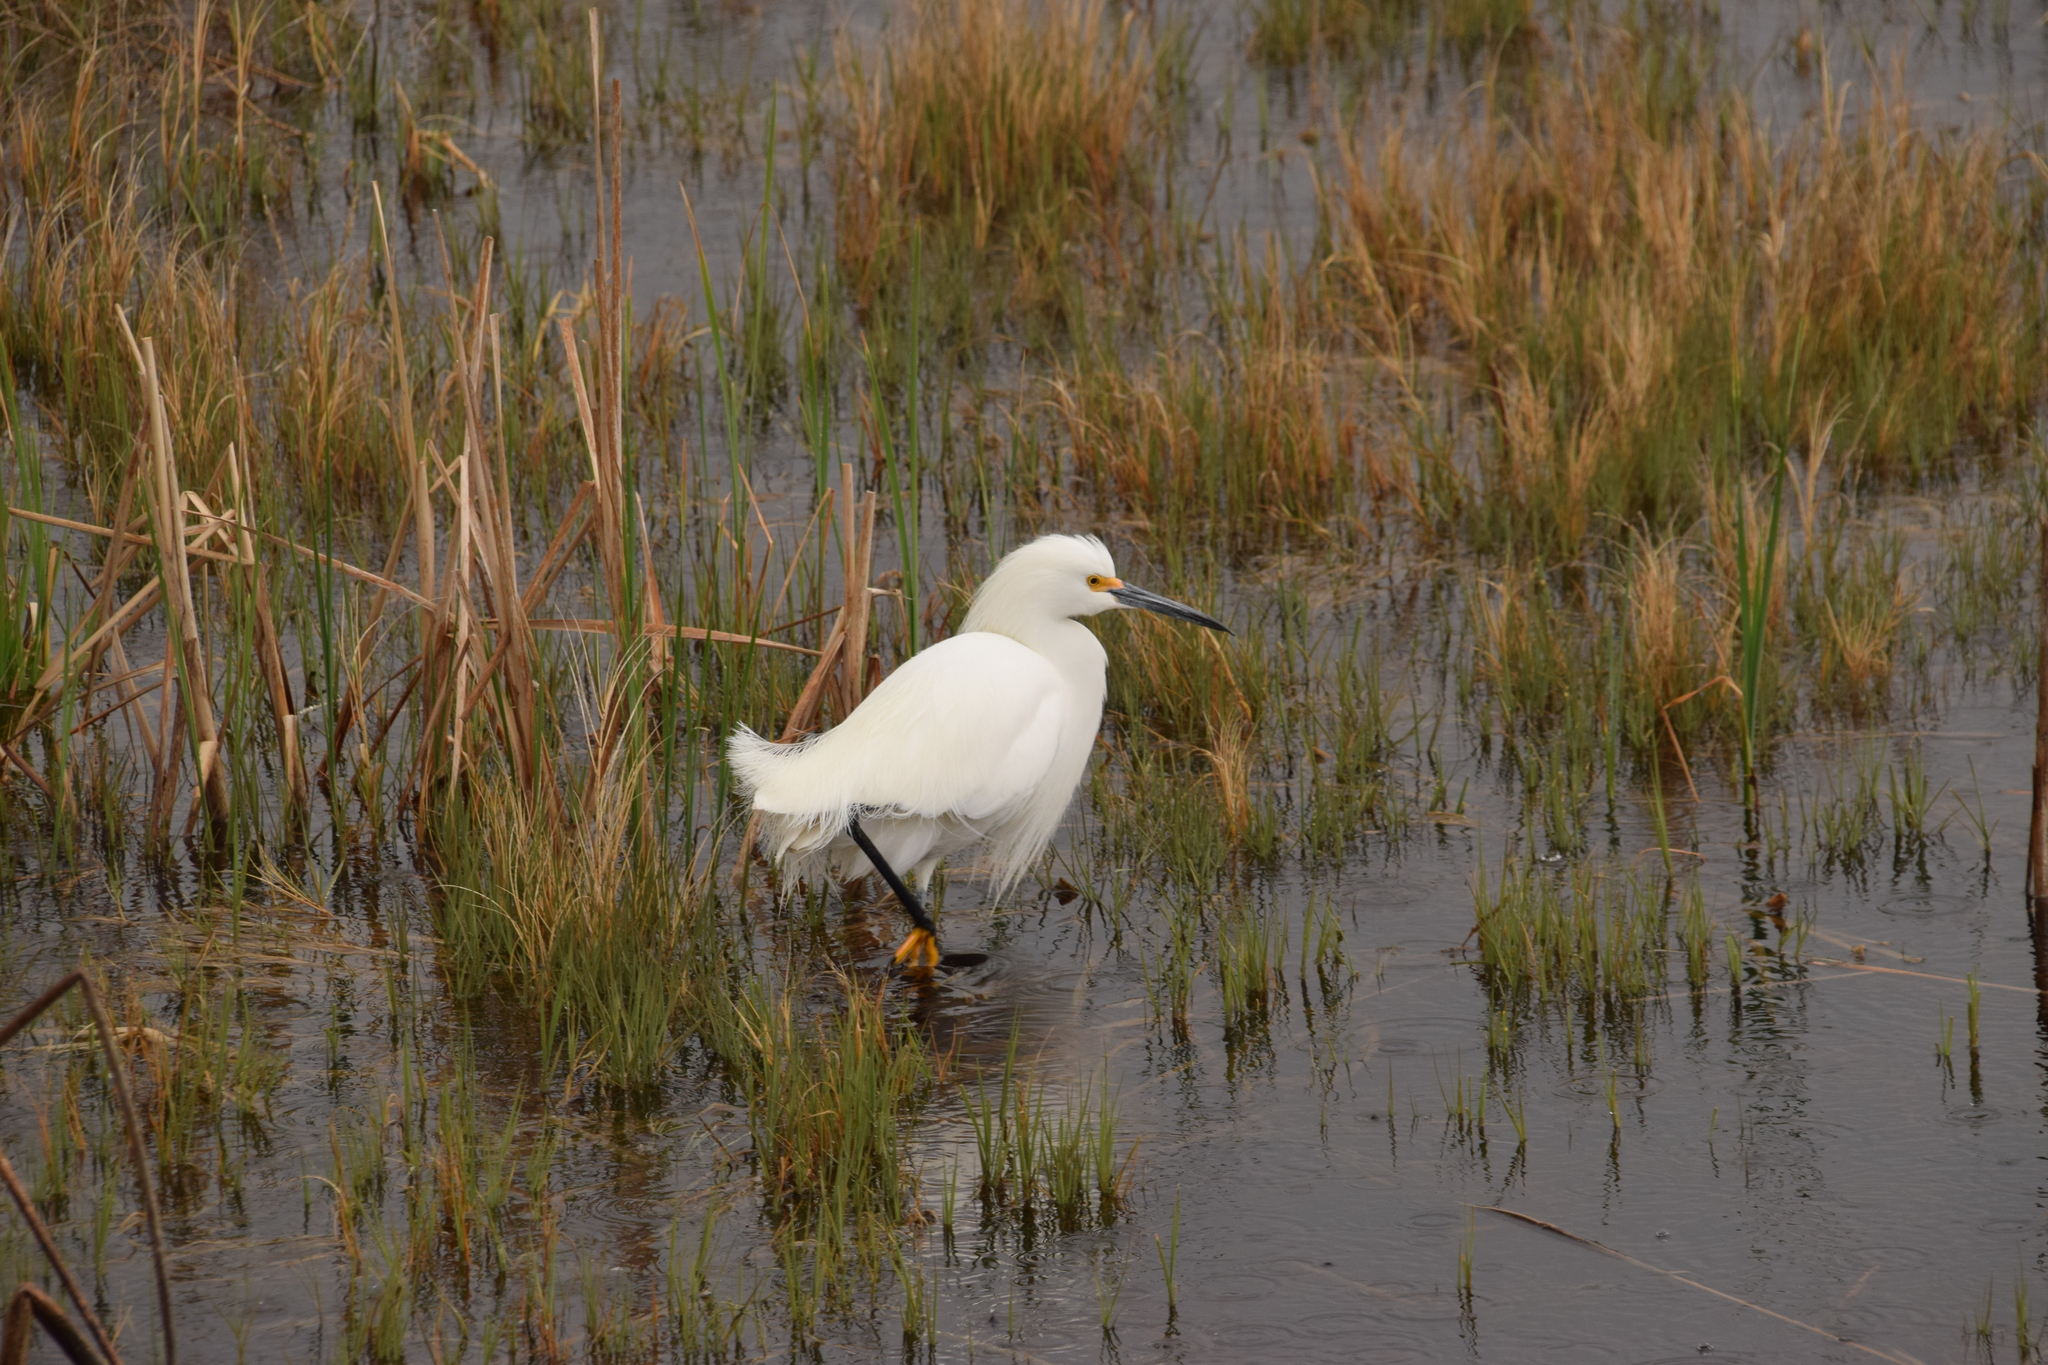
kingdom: Animalia
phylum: Chordata
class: Aves
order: Pelecaniformes
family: Ardeidae
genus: Egretta
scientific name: Egretta thula
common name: Snowy egret
